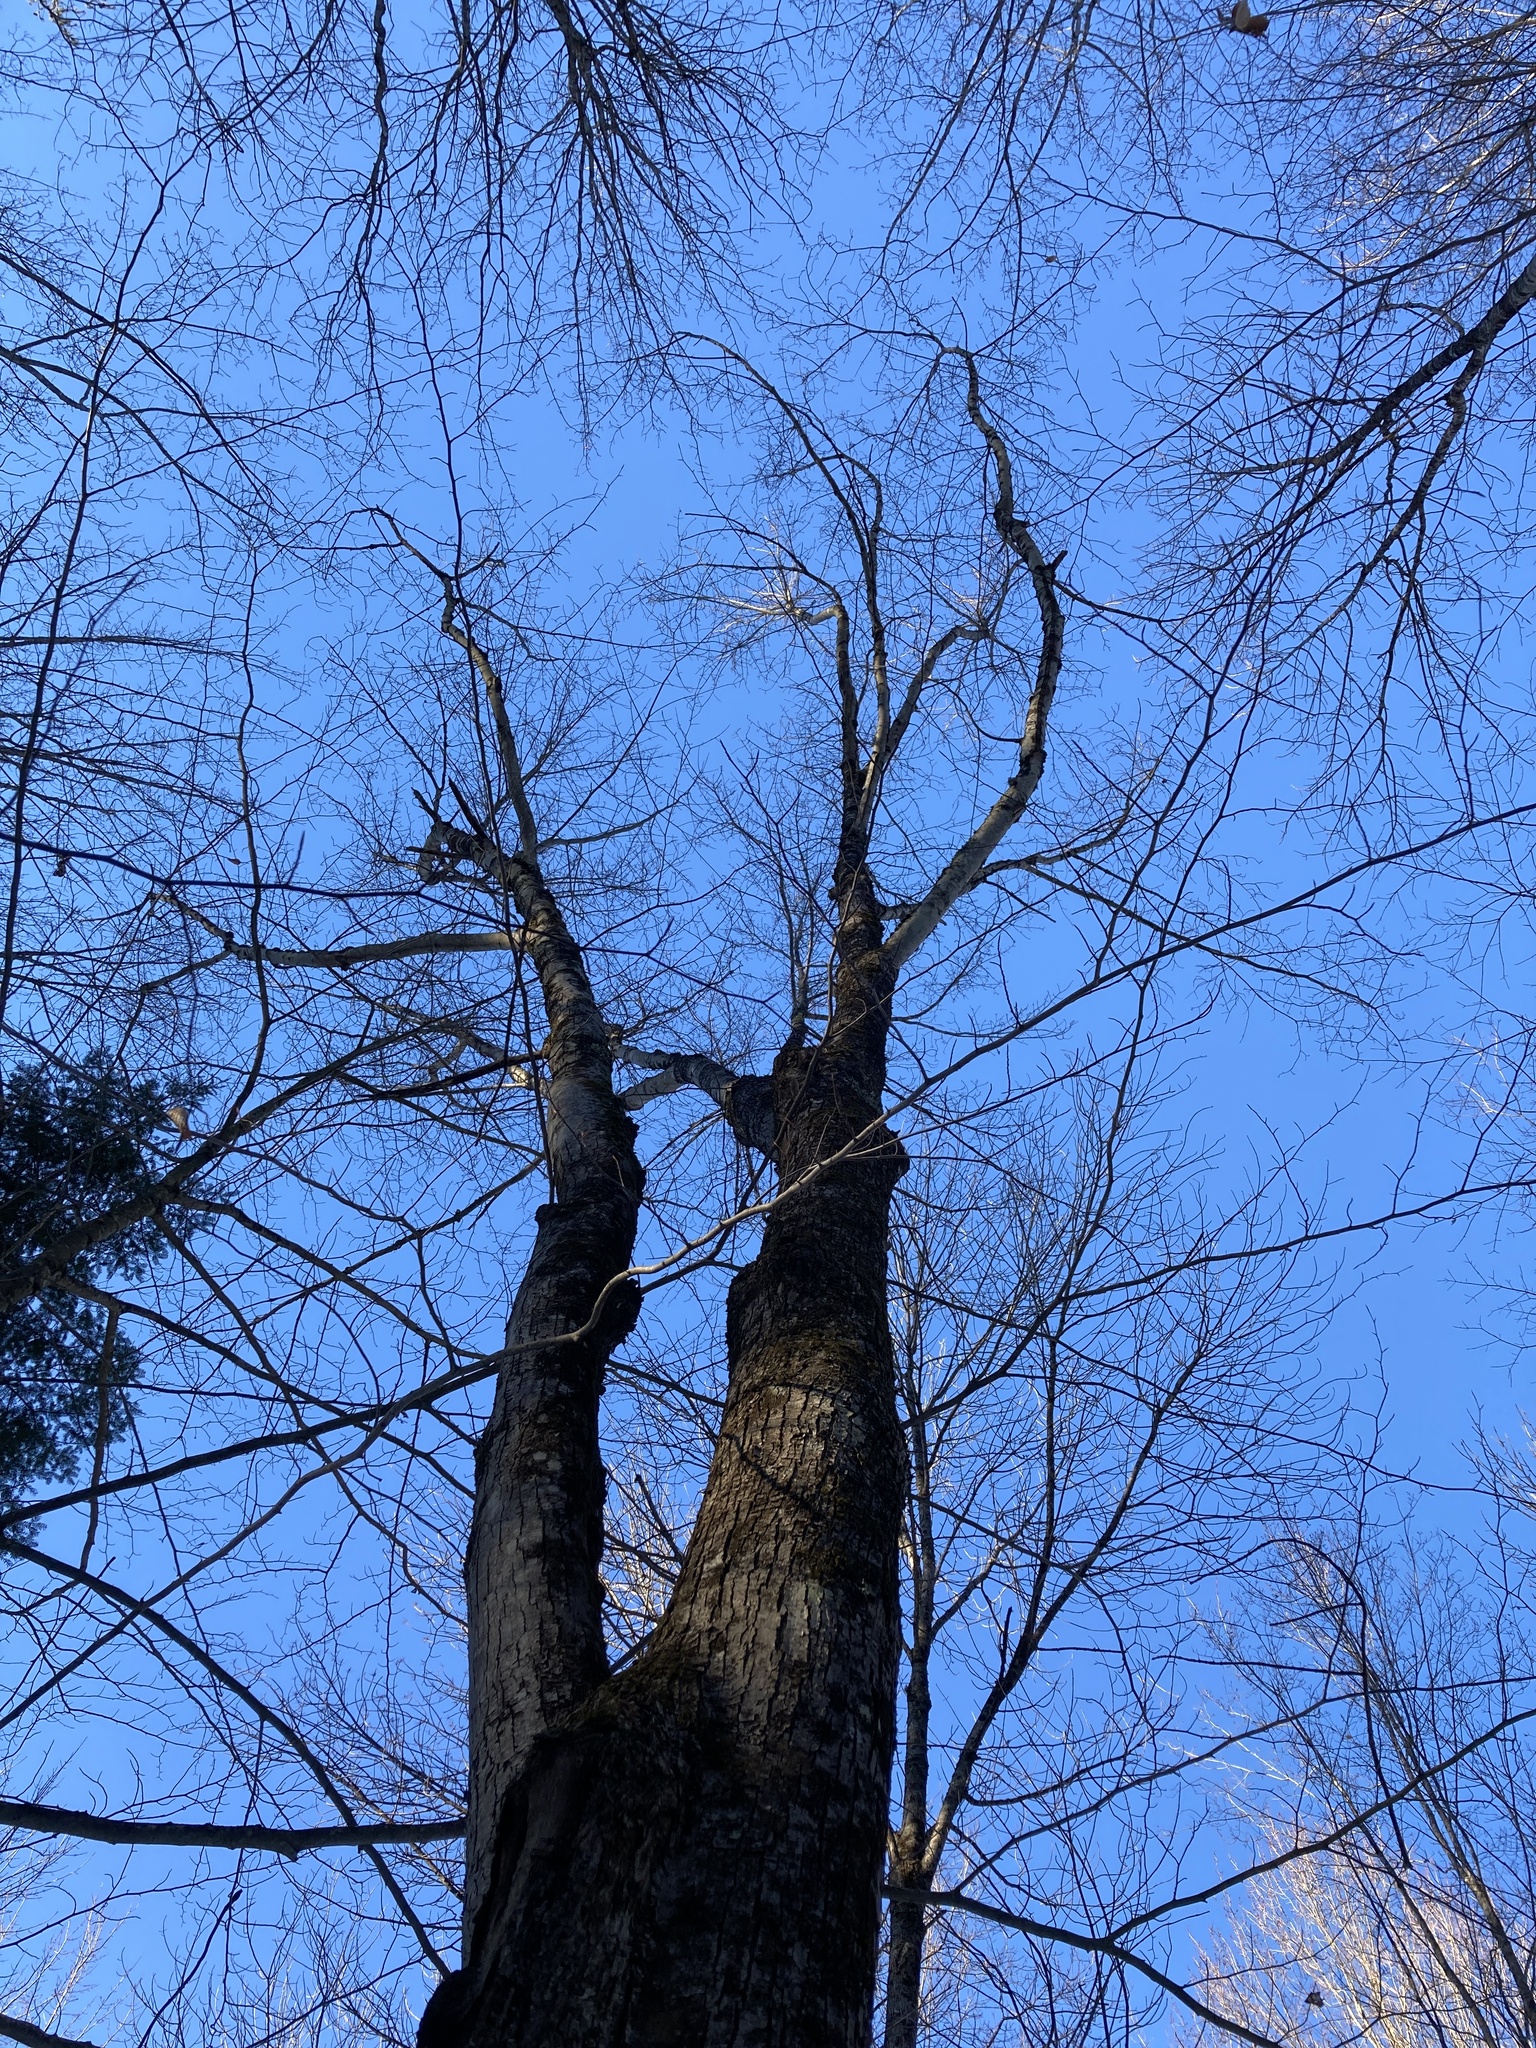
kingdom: Plantae
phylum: Tracheophyta
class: Magnoliopsida
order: Sapindales
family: Sapindaceae
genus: Acer
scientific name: Acer rubrum
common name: Red maple
